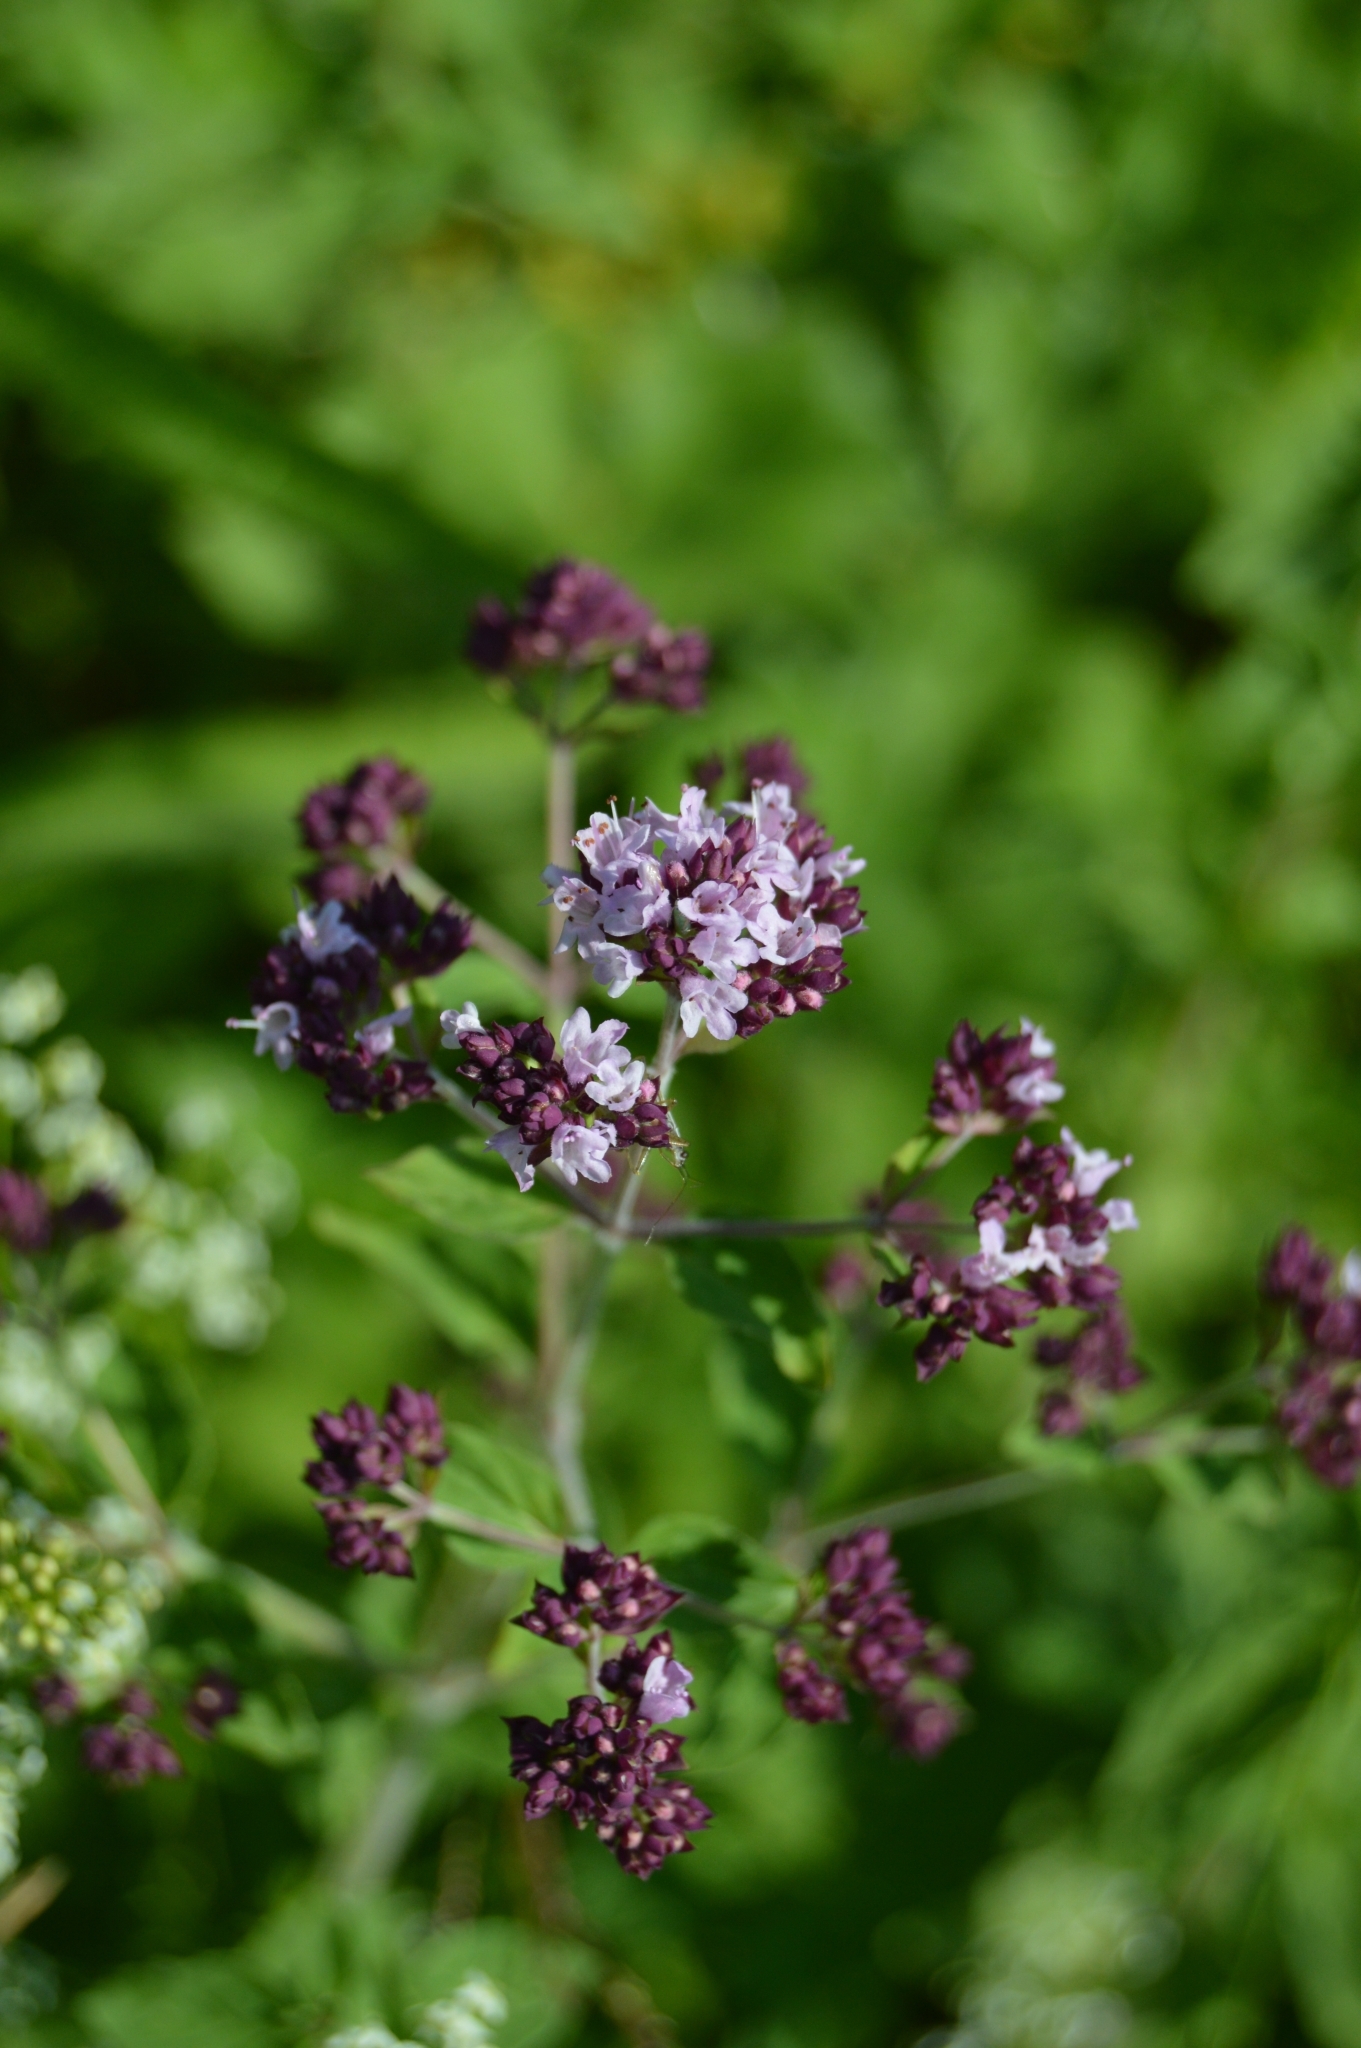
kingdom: Plantae
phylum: Tracheophyta
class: Magnoliopsida
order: Lamiales
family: Lamiaceae
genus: Origanum
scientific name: Origanum vulgare
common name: Wild marjoram
